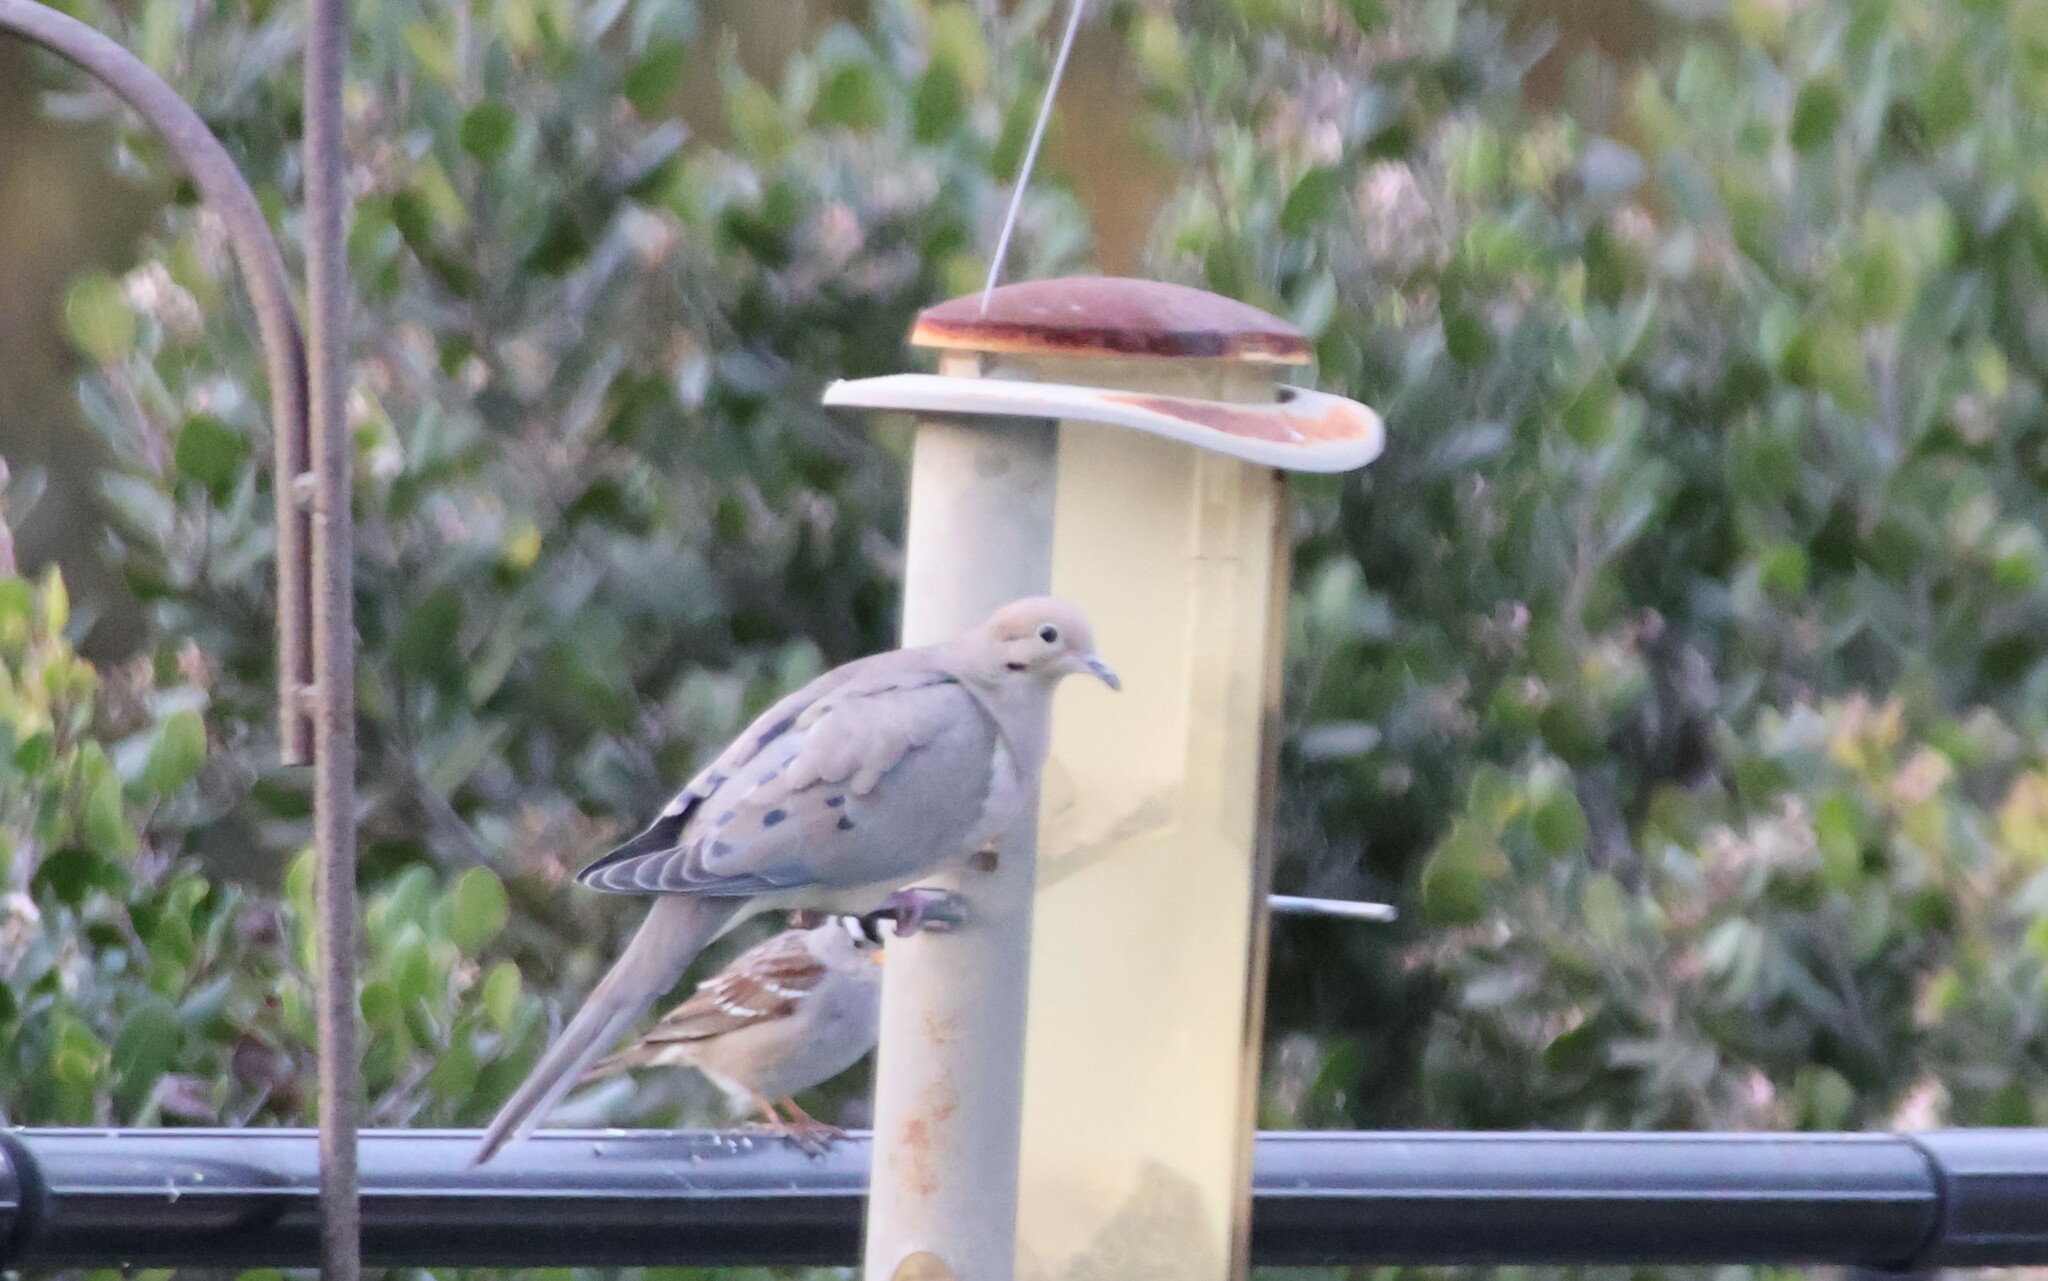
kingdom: Animalia
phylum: Chordata
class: Aves
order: Columbiformes
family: Columbidae
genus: Zenaida
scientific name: Zenaida macroura
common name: Mourning dove
